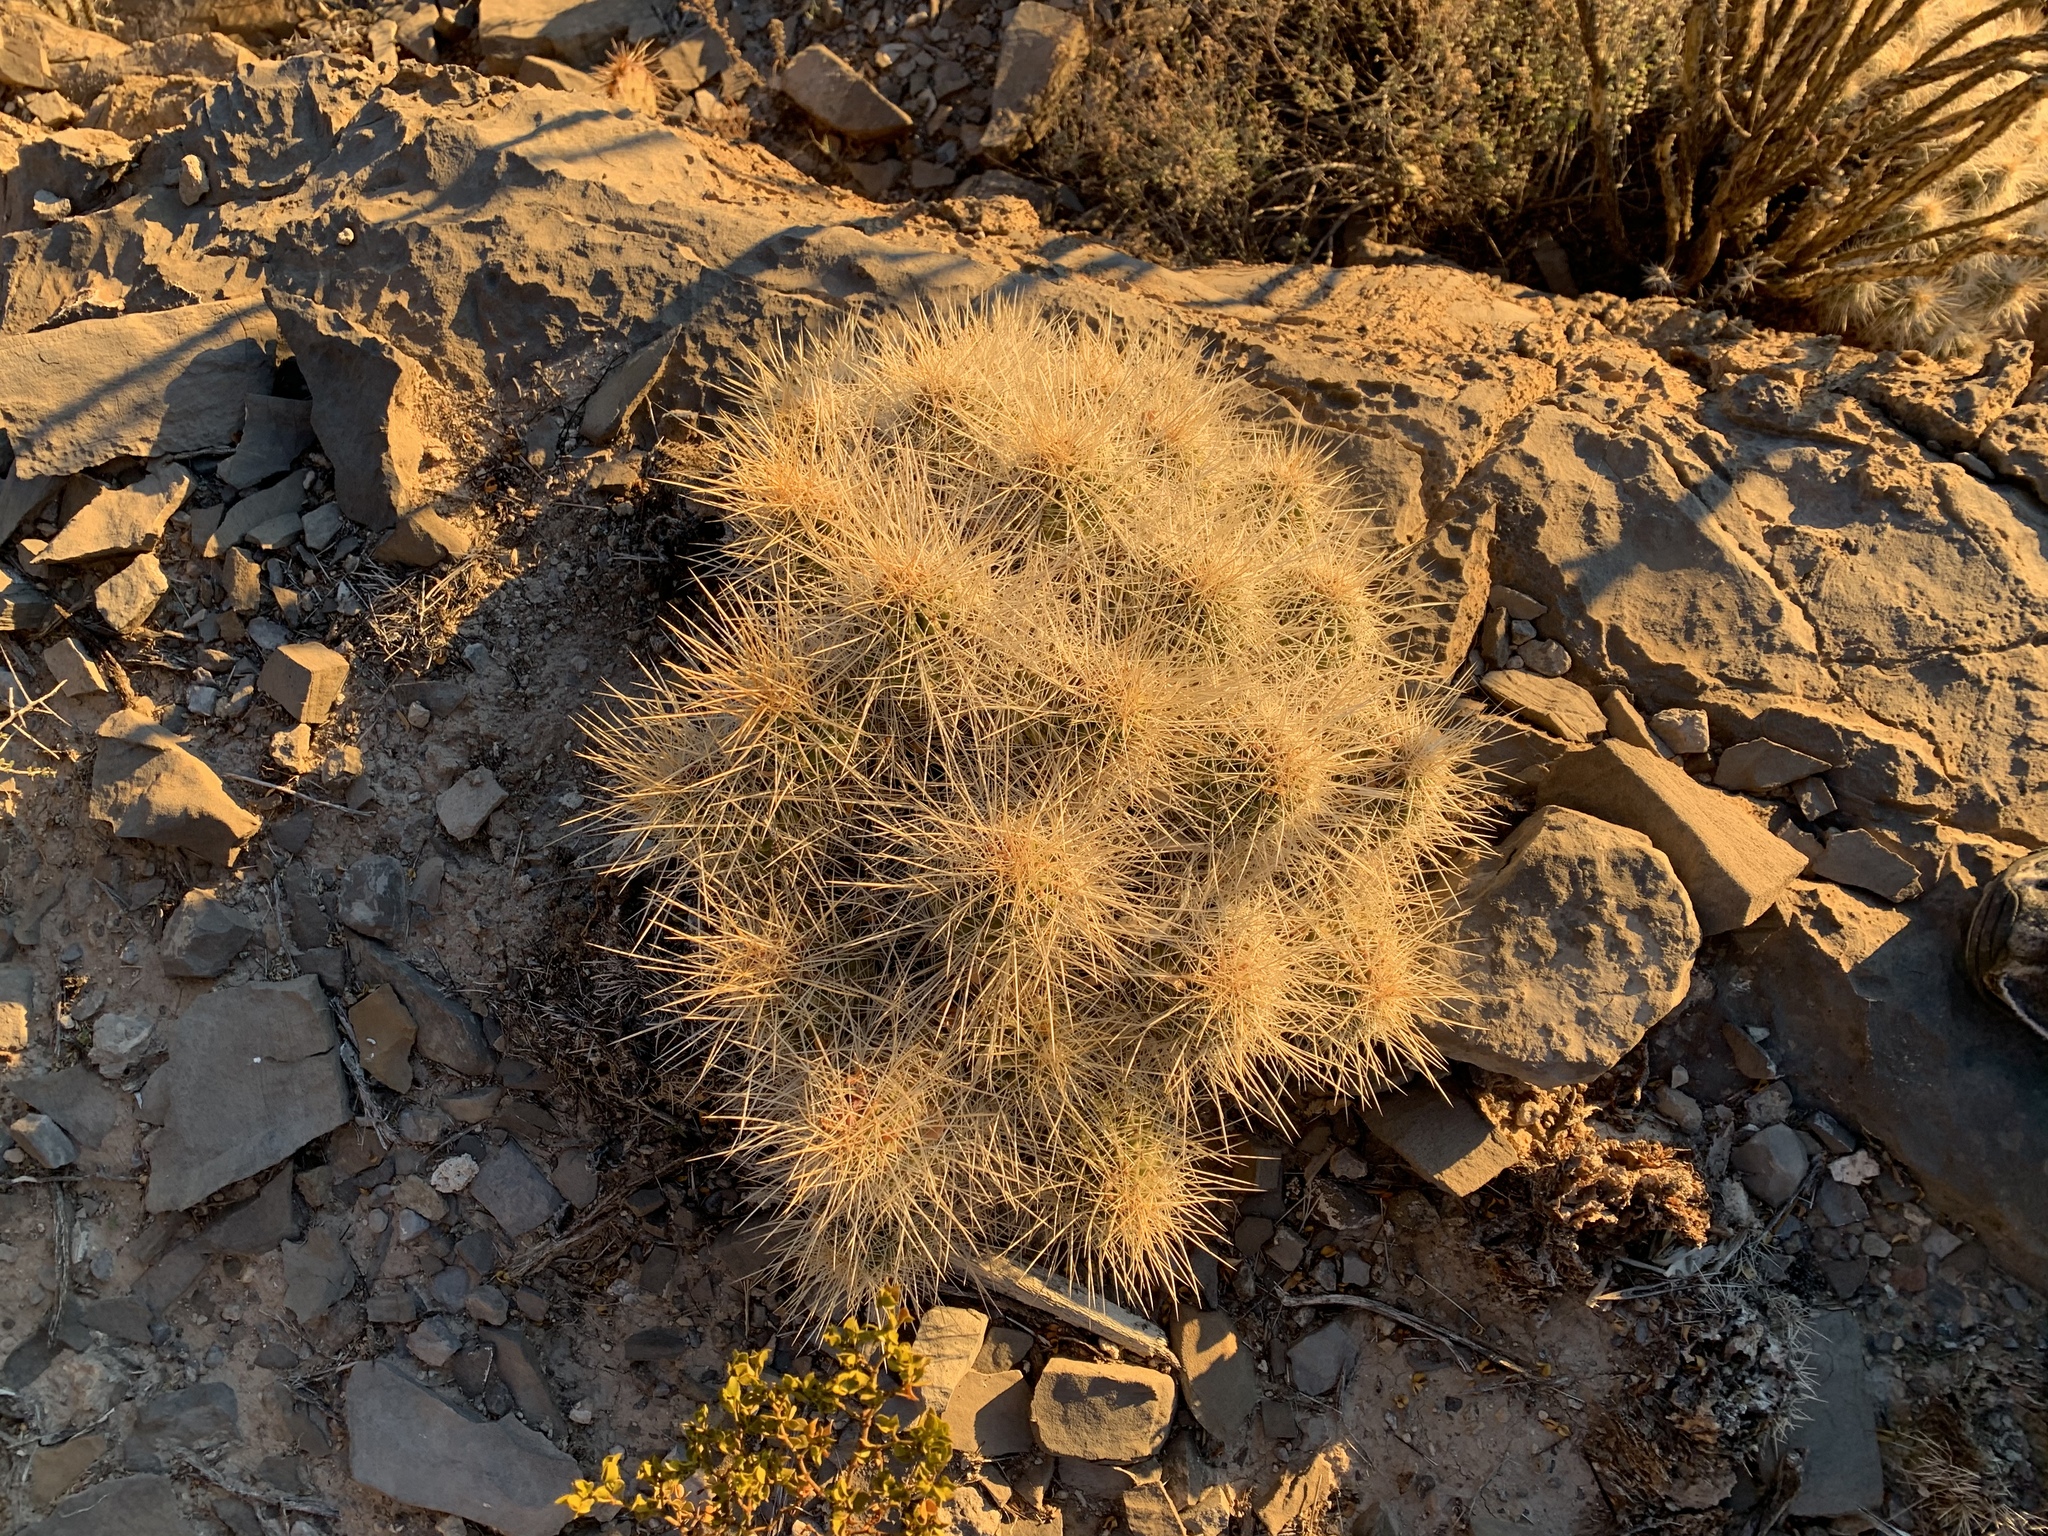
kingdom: Plantae
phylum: Tracheophyta
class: Magnoliopsida
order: Caryophyllales
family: Cactaceae
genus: Echinocereus
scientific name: Echinocereus stramineus
